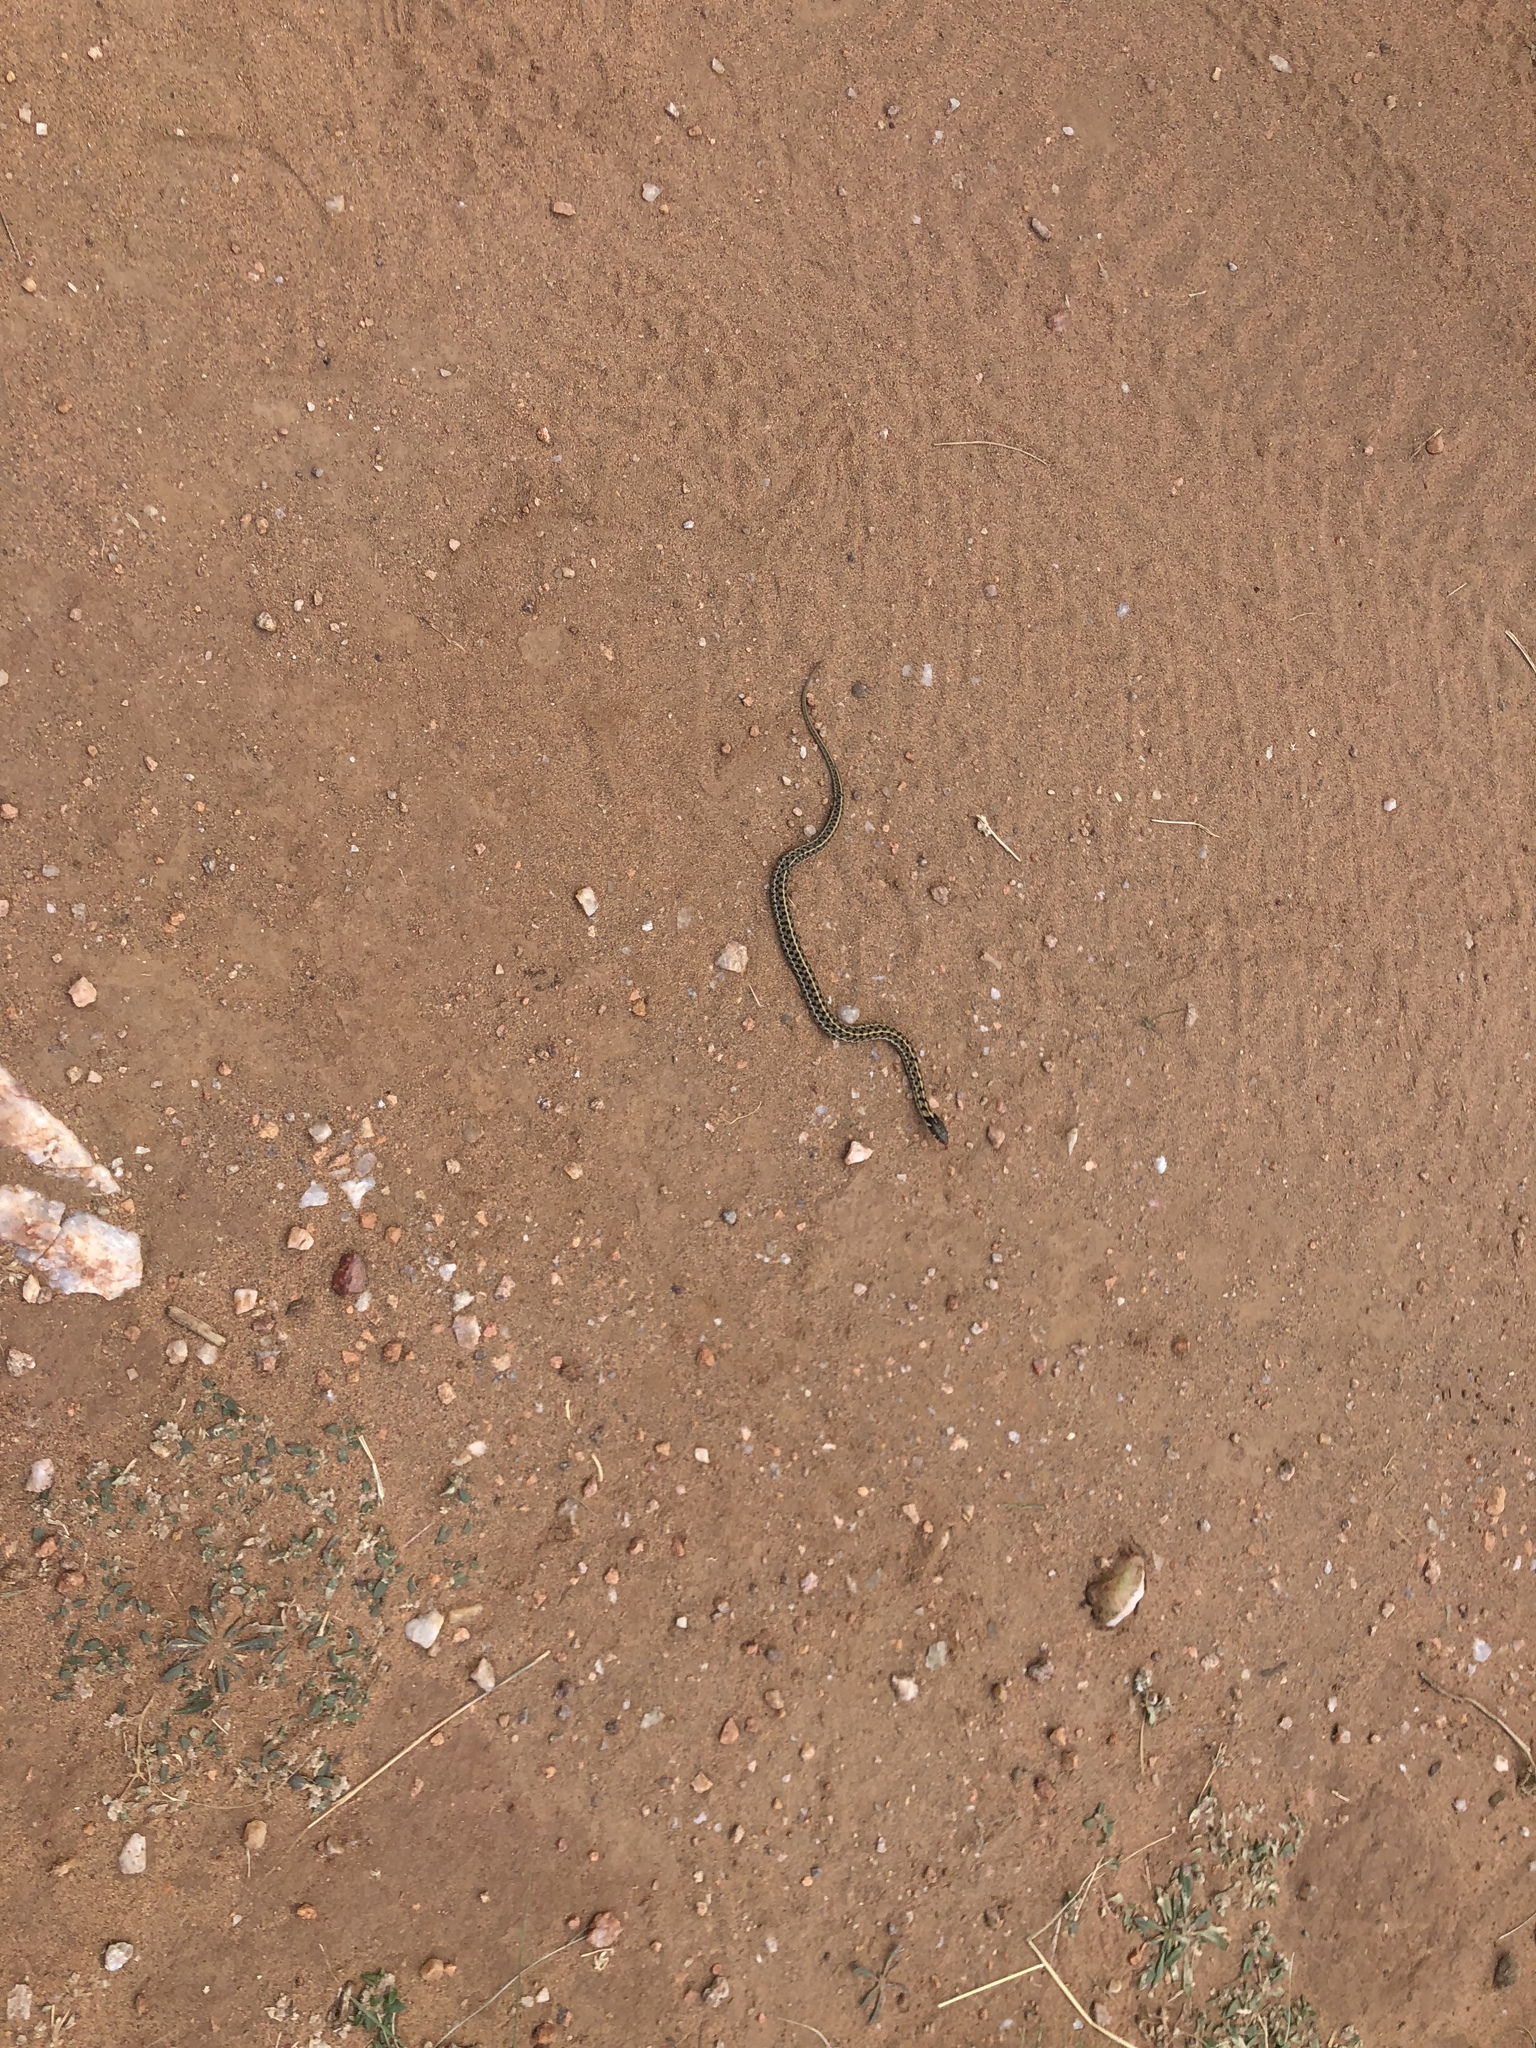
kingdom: Animalia
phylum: Chordata
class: Squamata
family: Colubridae
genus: Thamnophis
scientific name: Thamnophis marcianus
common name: Checkered garter snake
